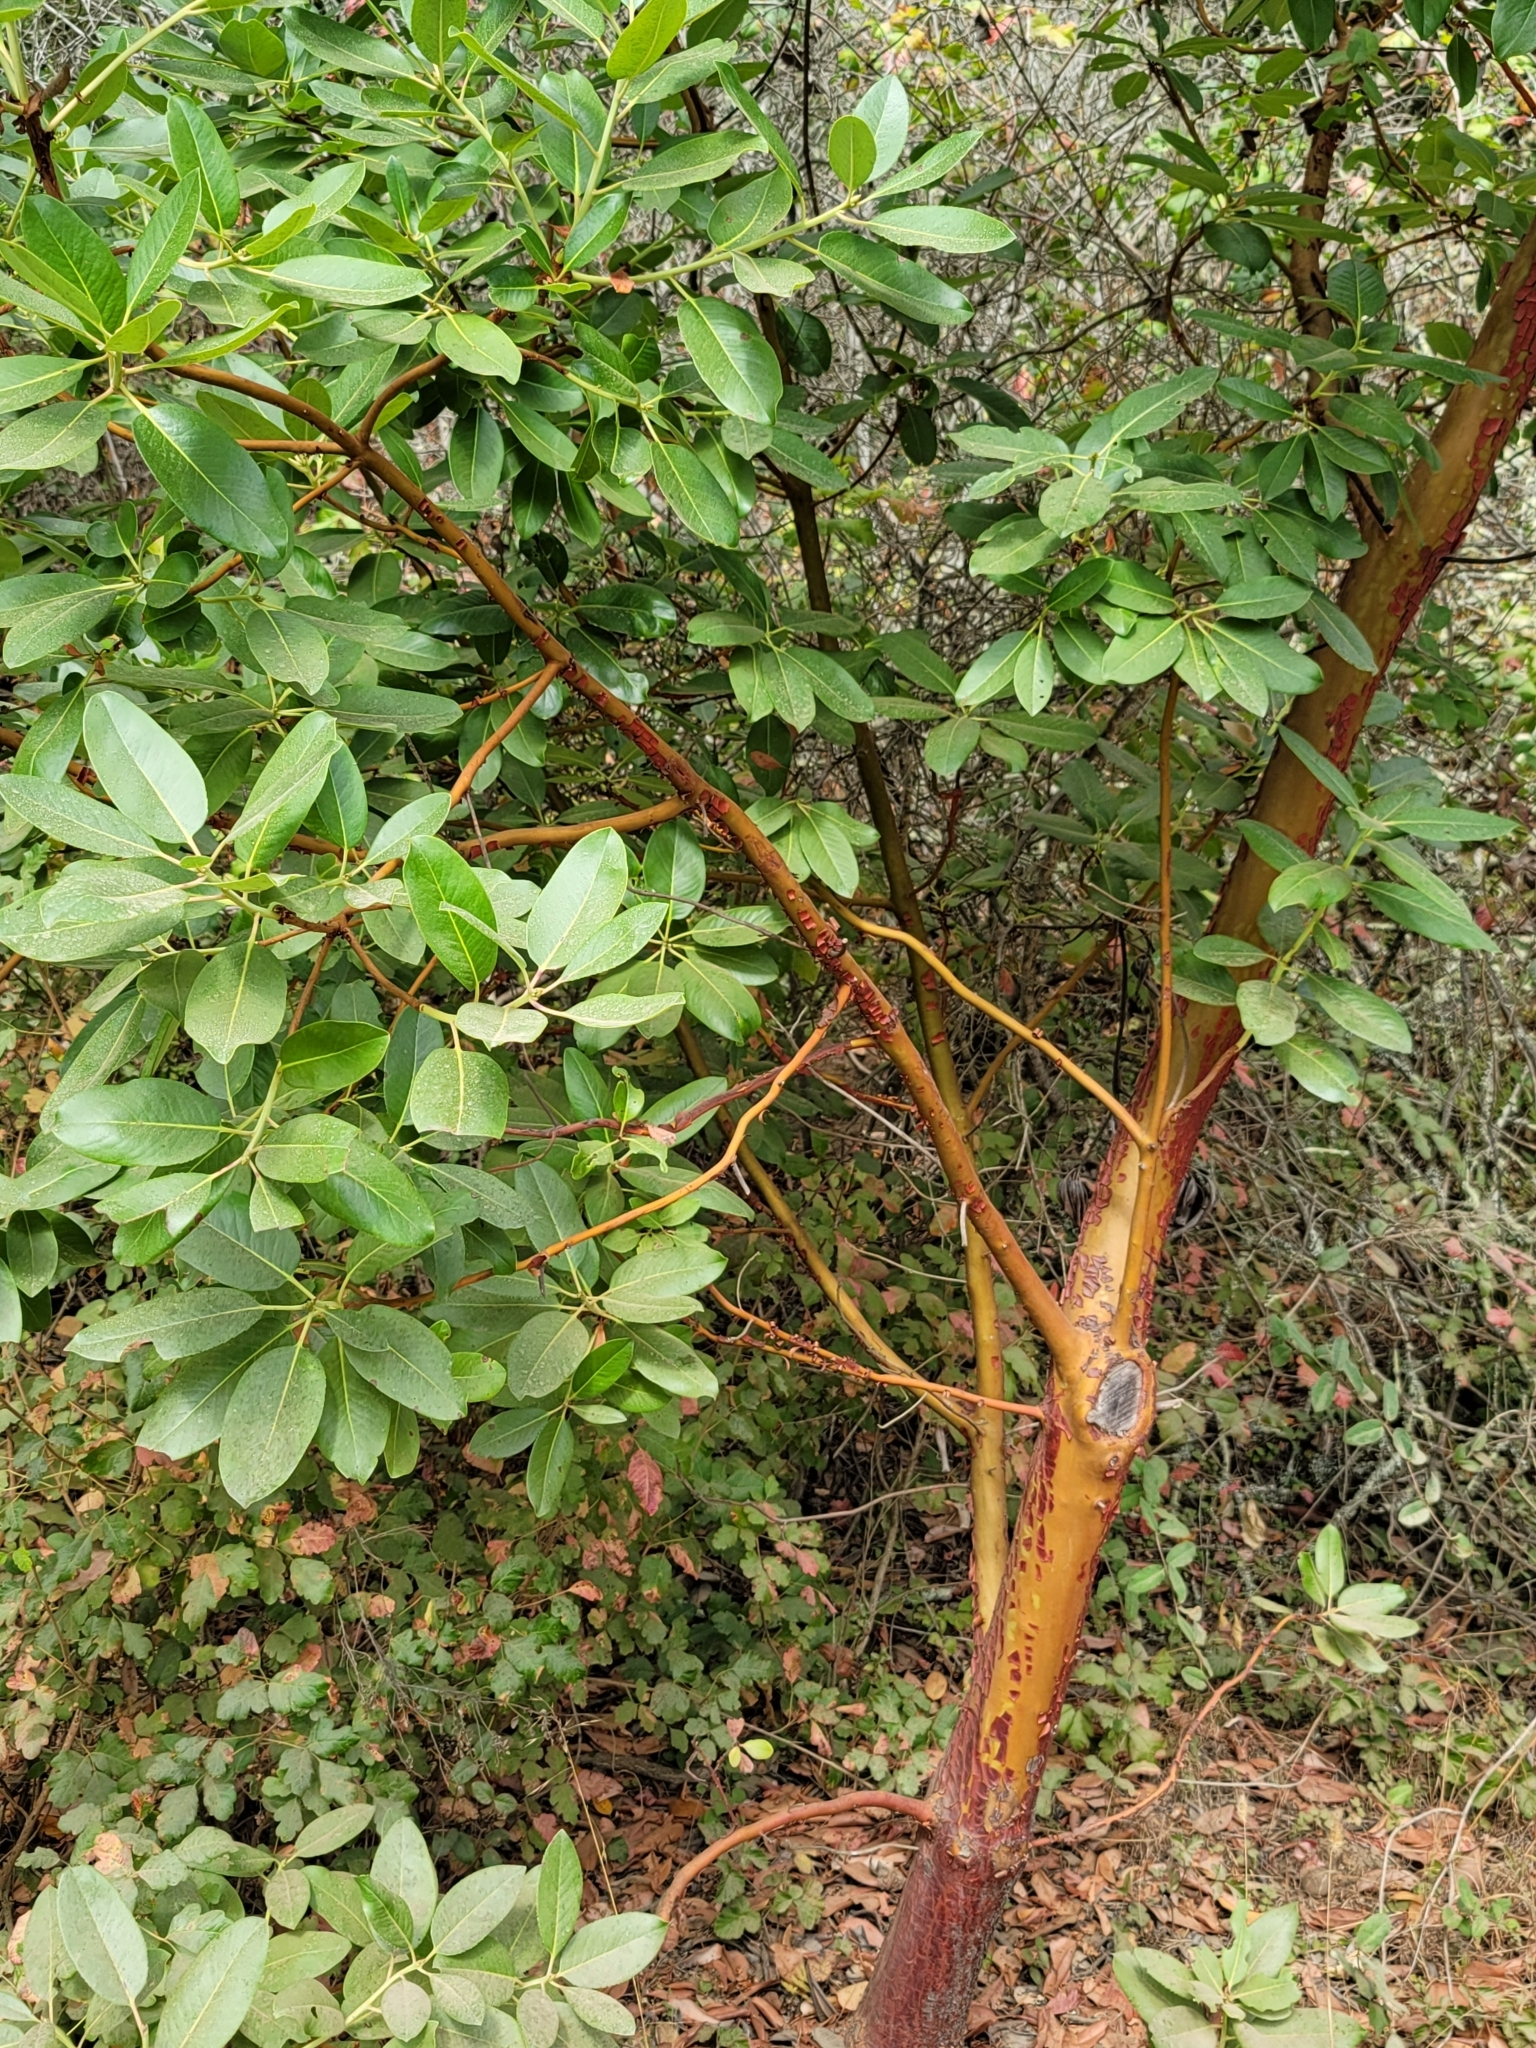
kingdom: Plantae
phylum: Tracheophyta
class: Magnoliopsida
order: Ericales
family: Ericaceae
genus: Arbutus
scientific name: Arbutus menziesii
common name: Pacific madrone
